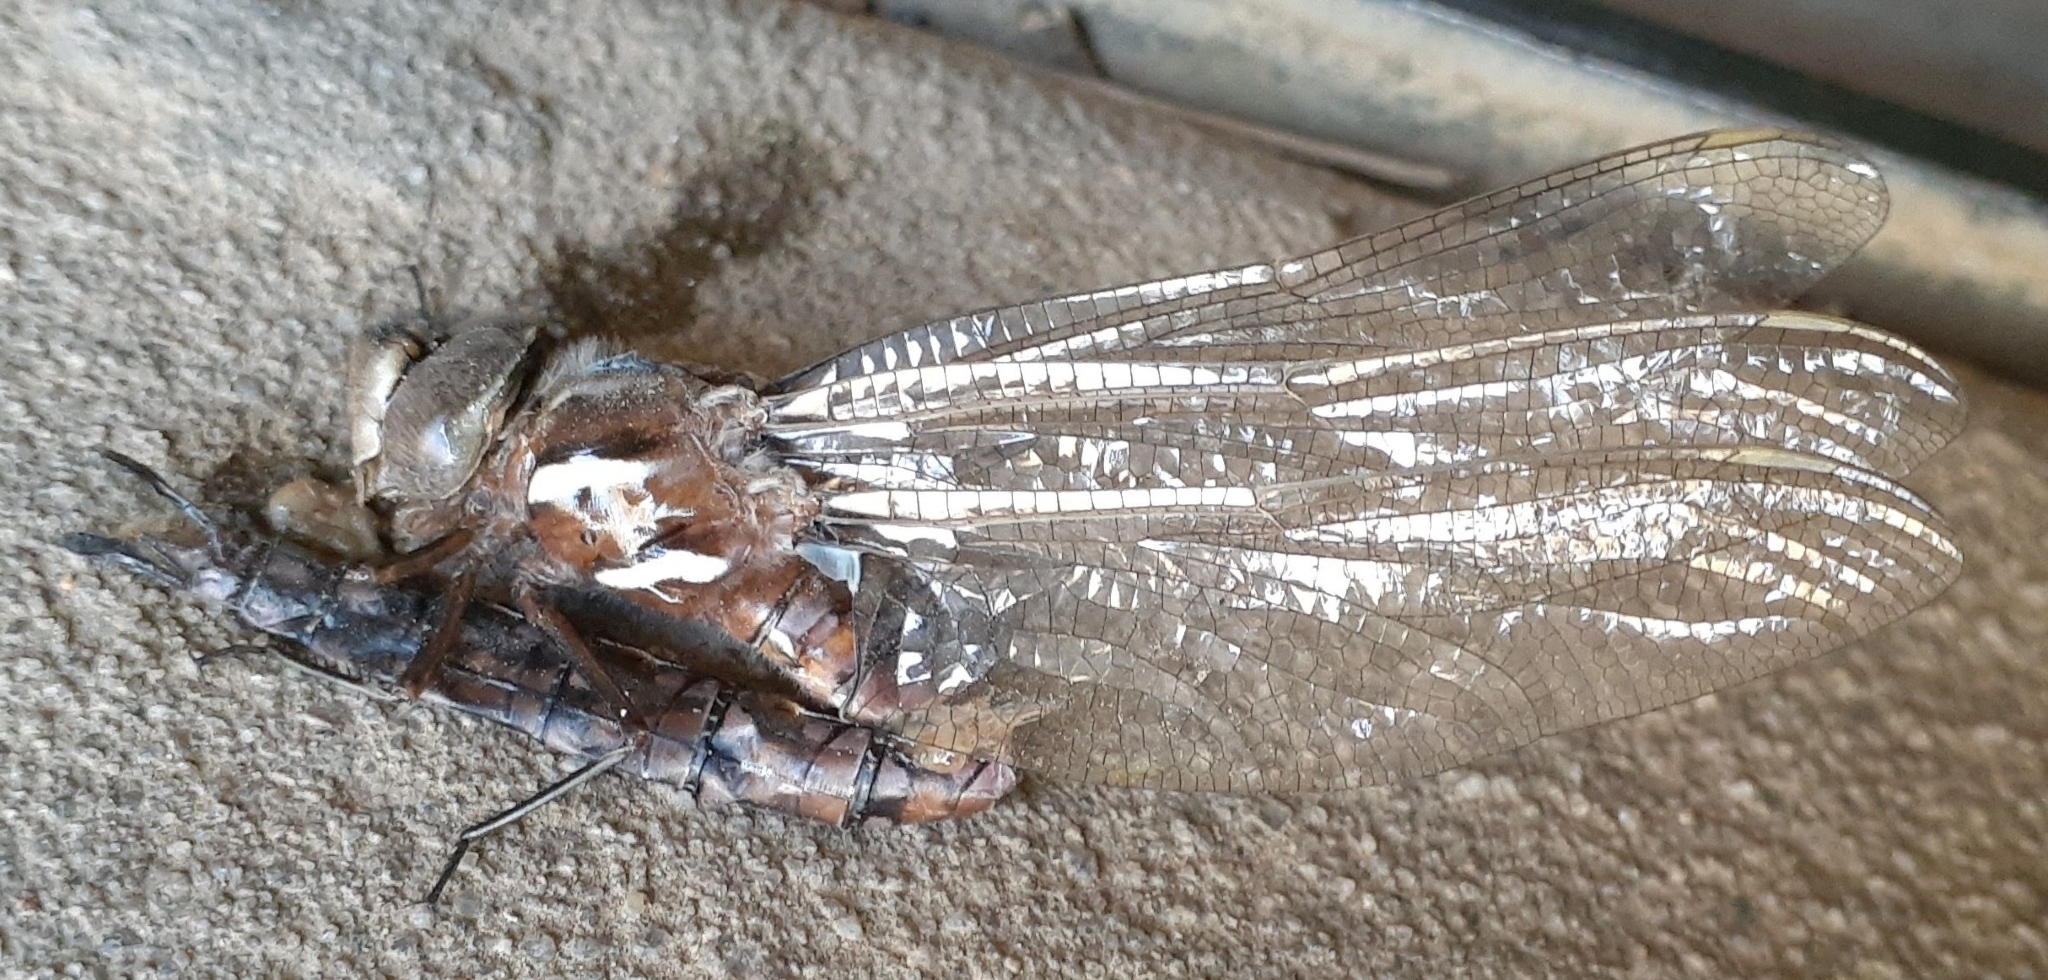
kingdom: Animalia
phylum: Arthropoda
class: Insecta
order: Odonata
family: Aeshnidae
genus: Basiaeschna
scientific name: Basiaeschna janata
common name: Springtime darner
